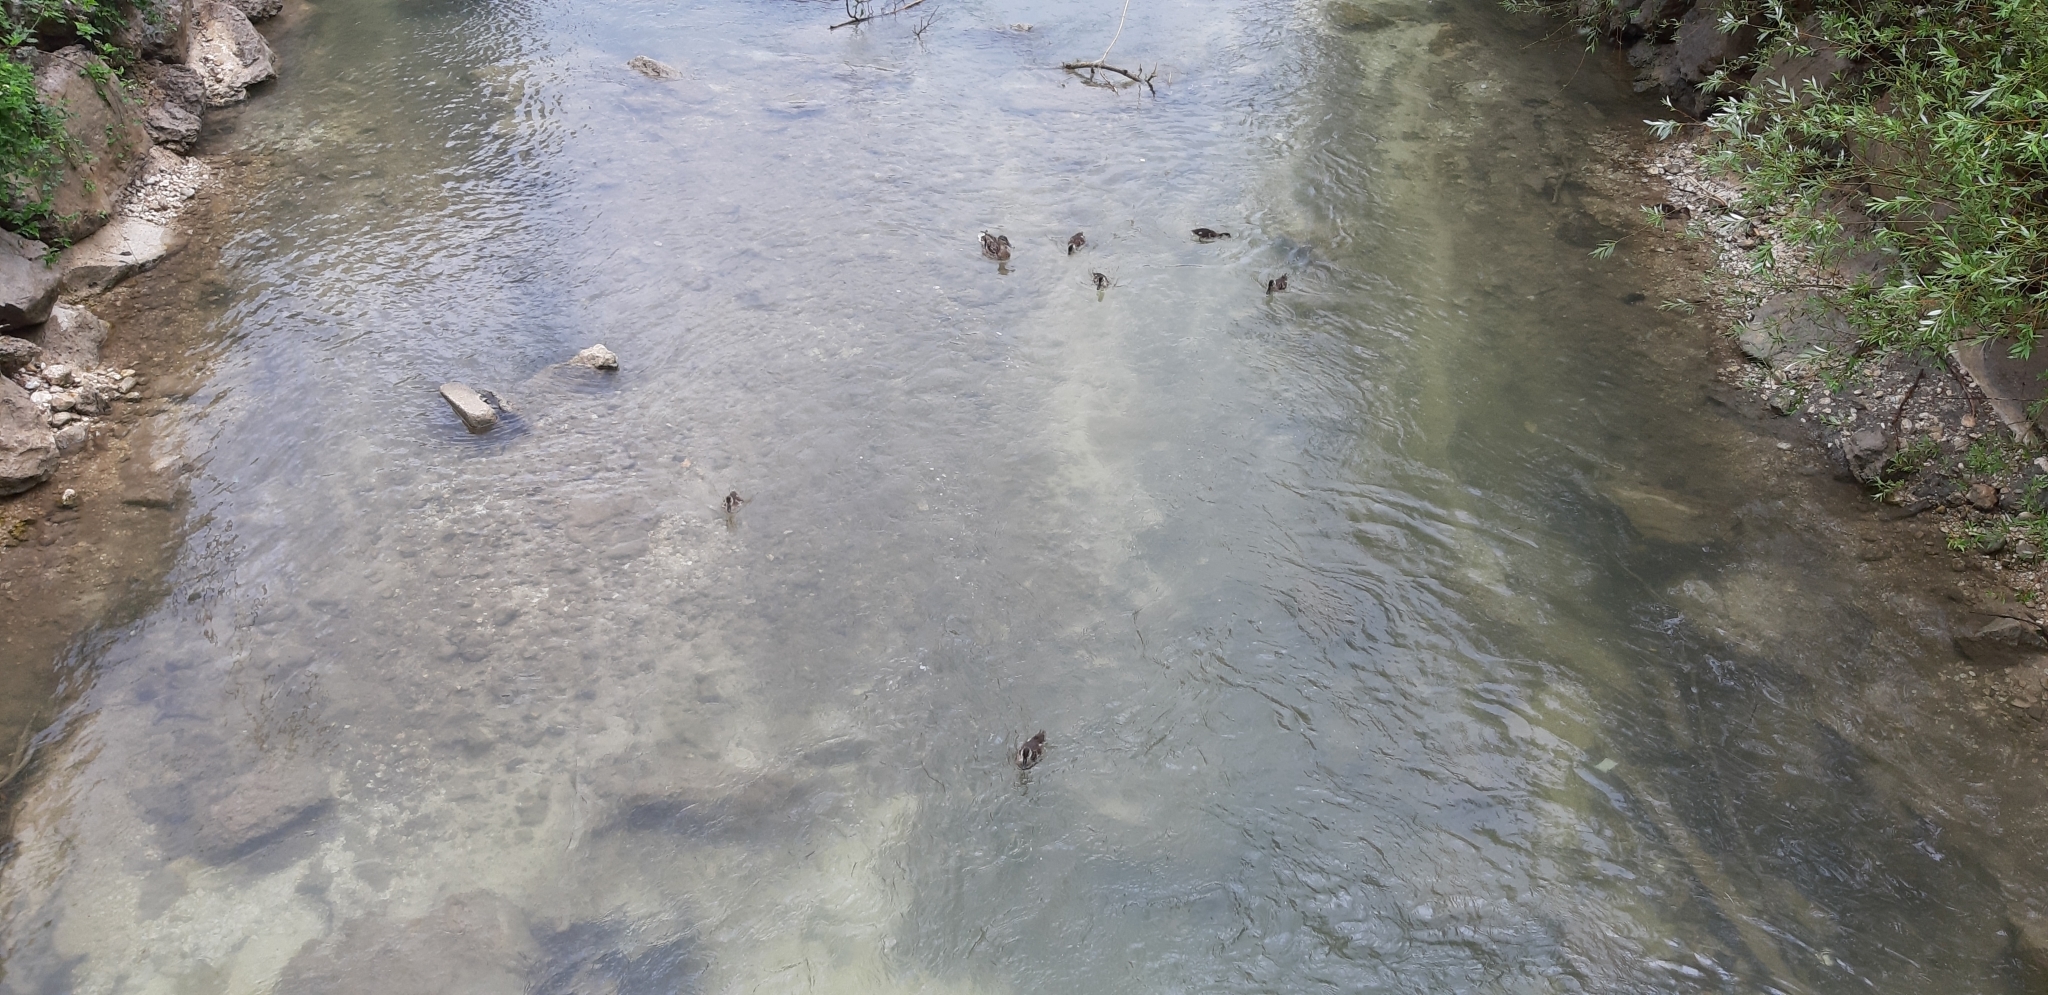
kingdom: Animalia
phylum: Chordata
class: Aves
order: Anseriformes
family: Anatidae
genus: Anas
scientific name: Anas platyrhynchos
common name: Mallard
